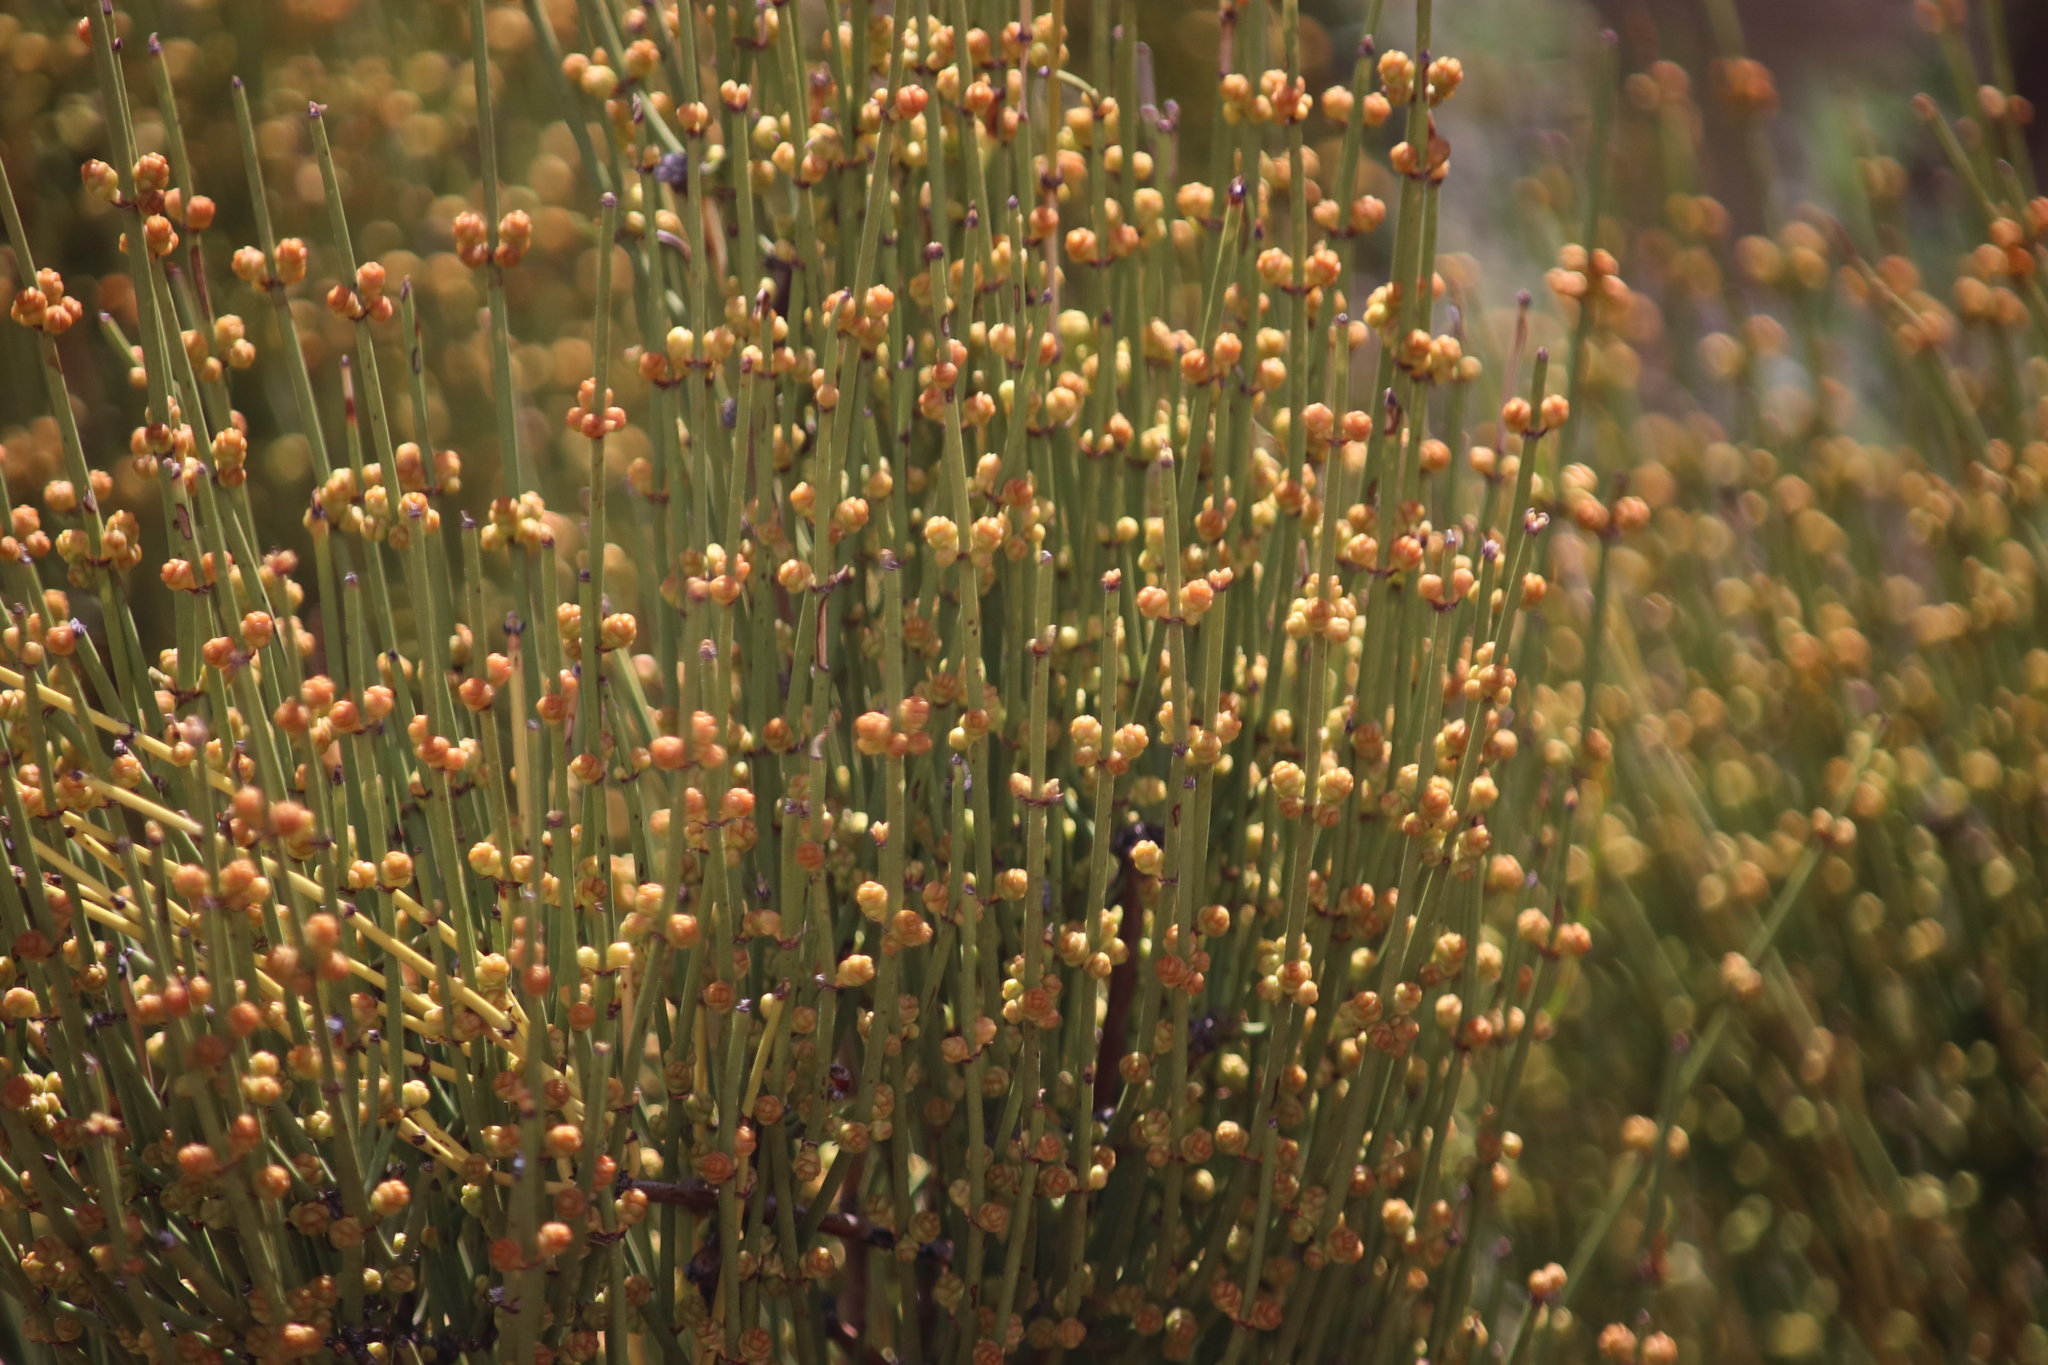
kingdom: Plantae
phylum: Tracheophyta
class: Gnetopsida
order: Ephedrales
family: Ephedraceae
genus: Ephedra
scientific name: Ephedra viridis
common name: Green ephedra
